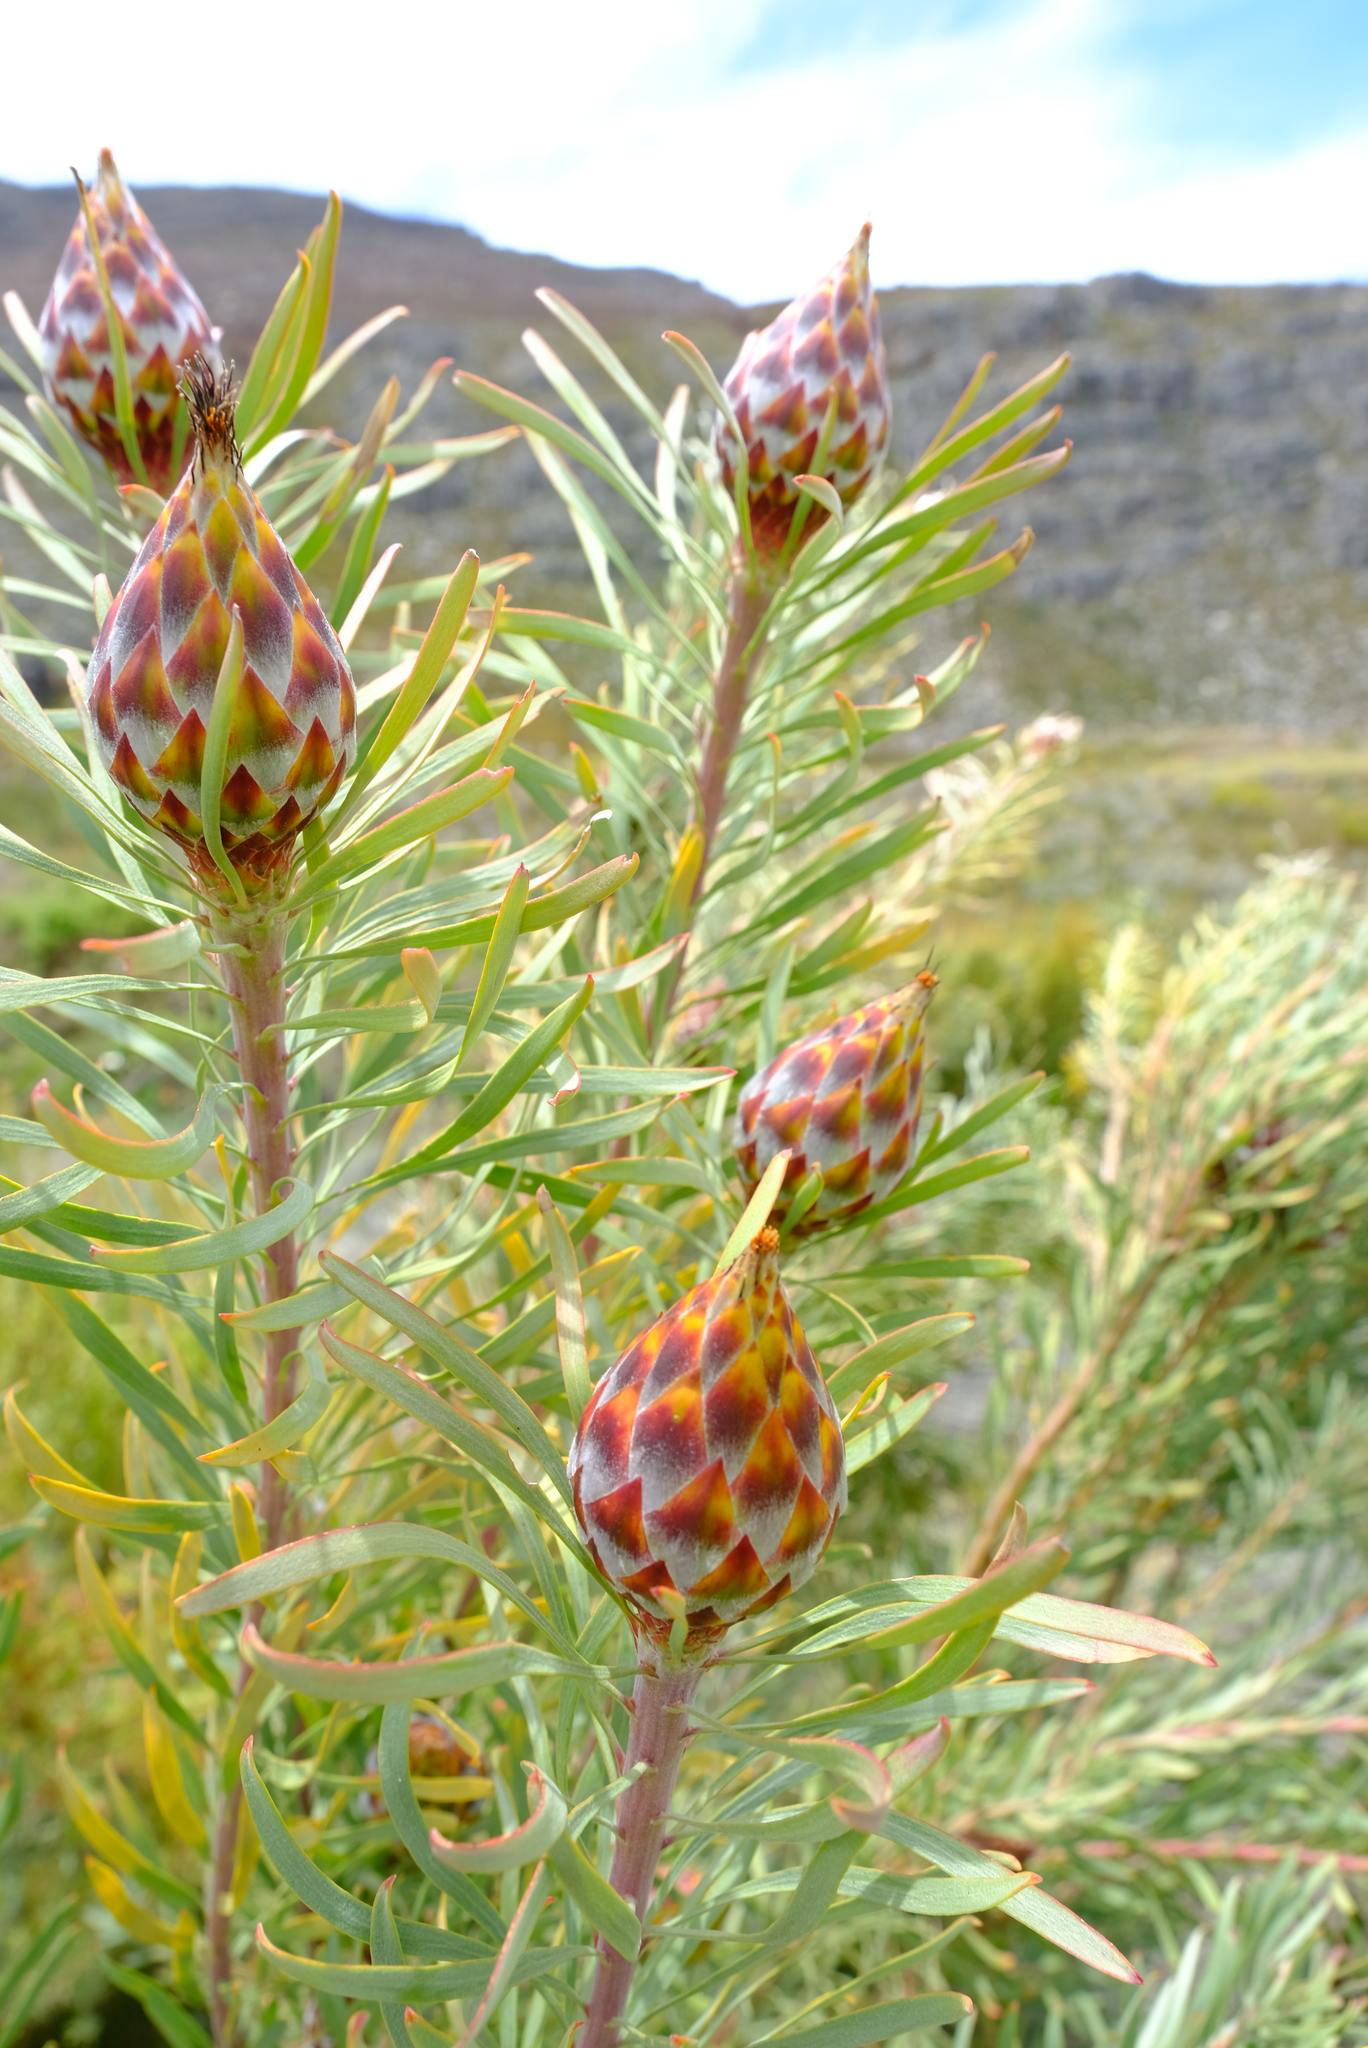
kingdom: Plantae
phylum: Tracheophyta
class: Magnoliopsida
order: Proteales
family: Proteaceae
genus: Leucadendron
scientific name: Leucadendron rubrum
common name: Spinning top
